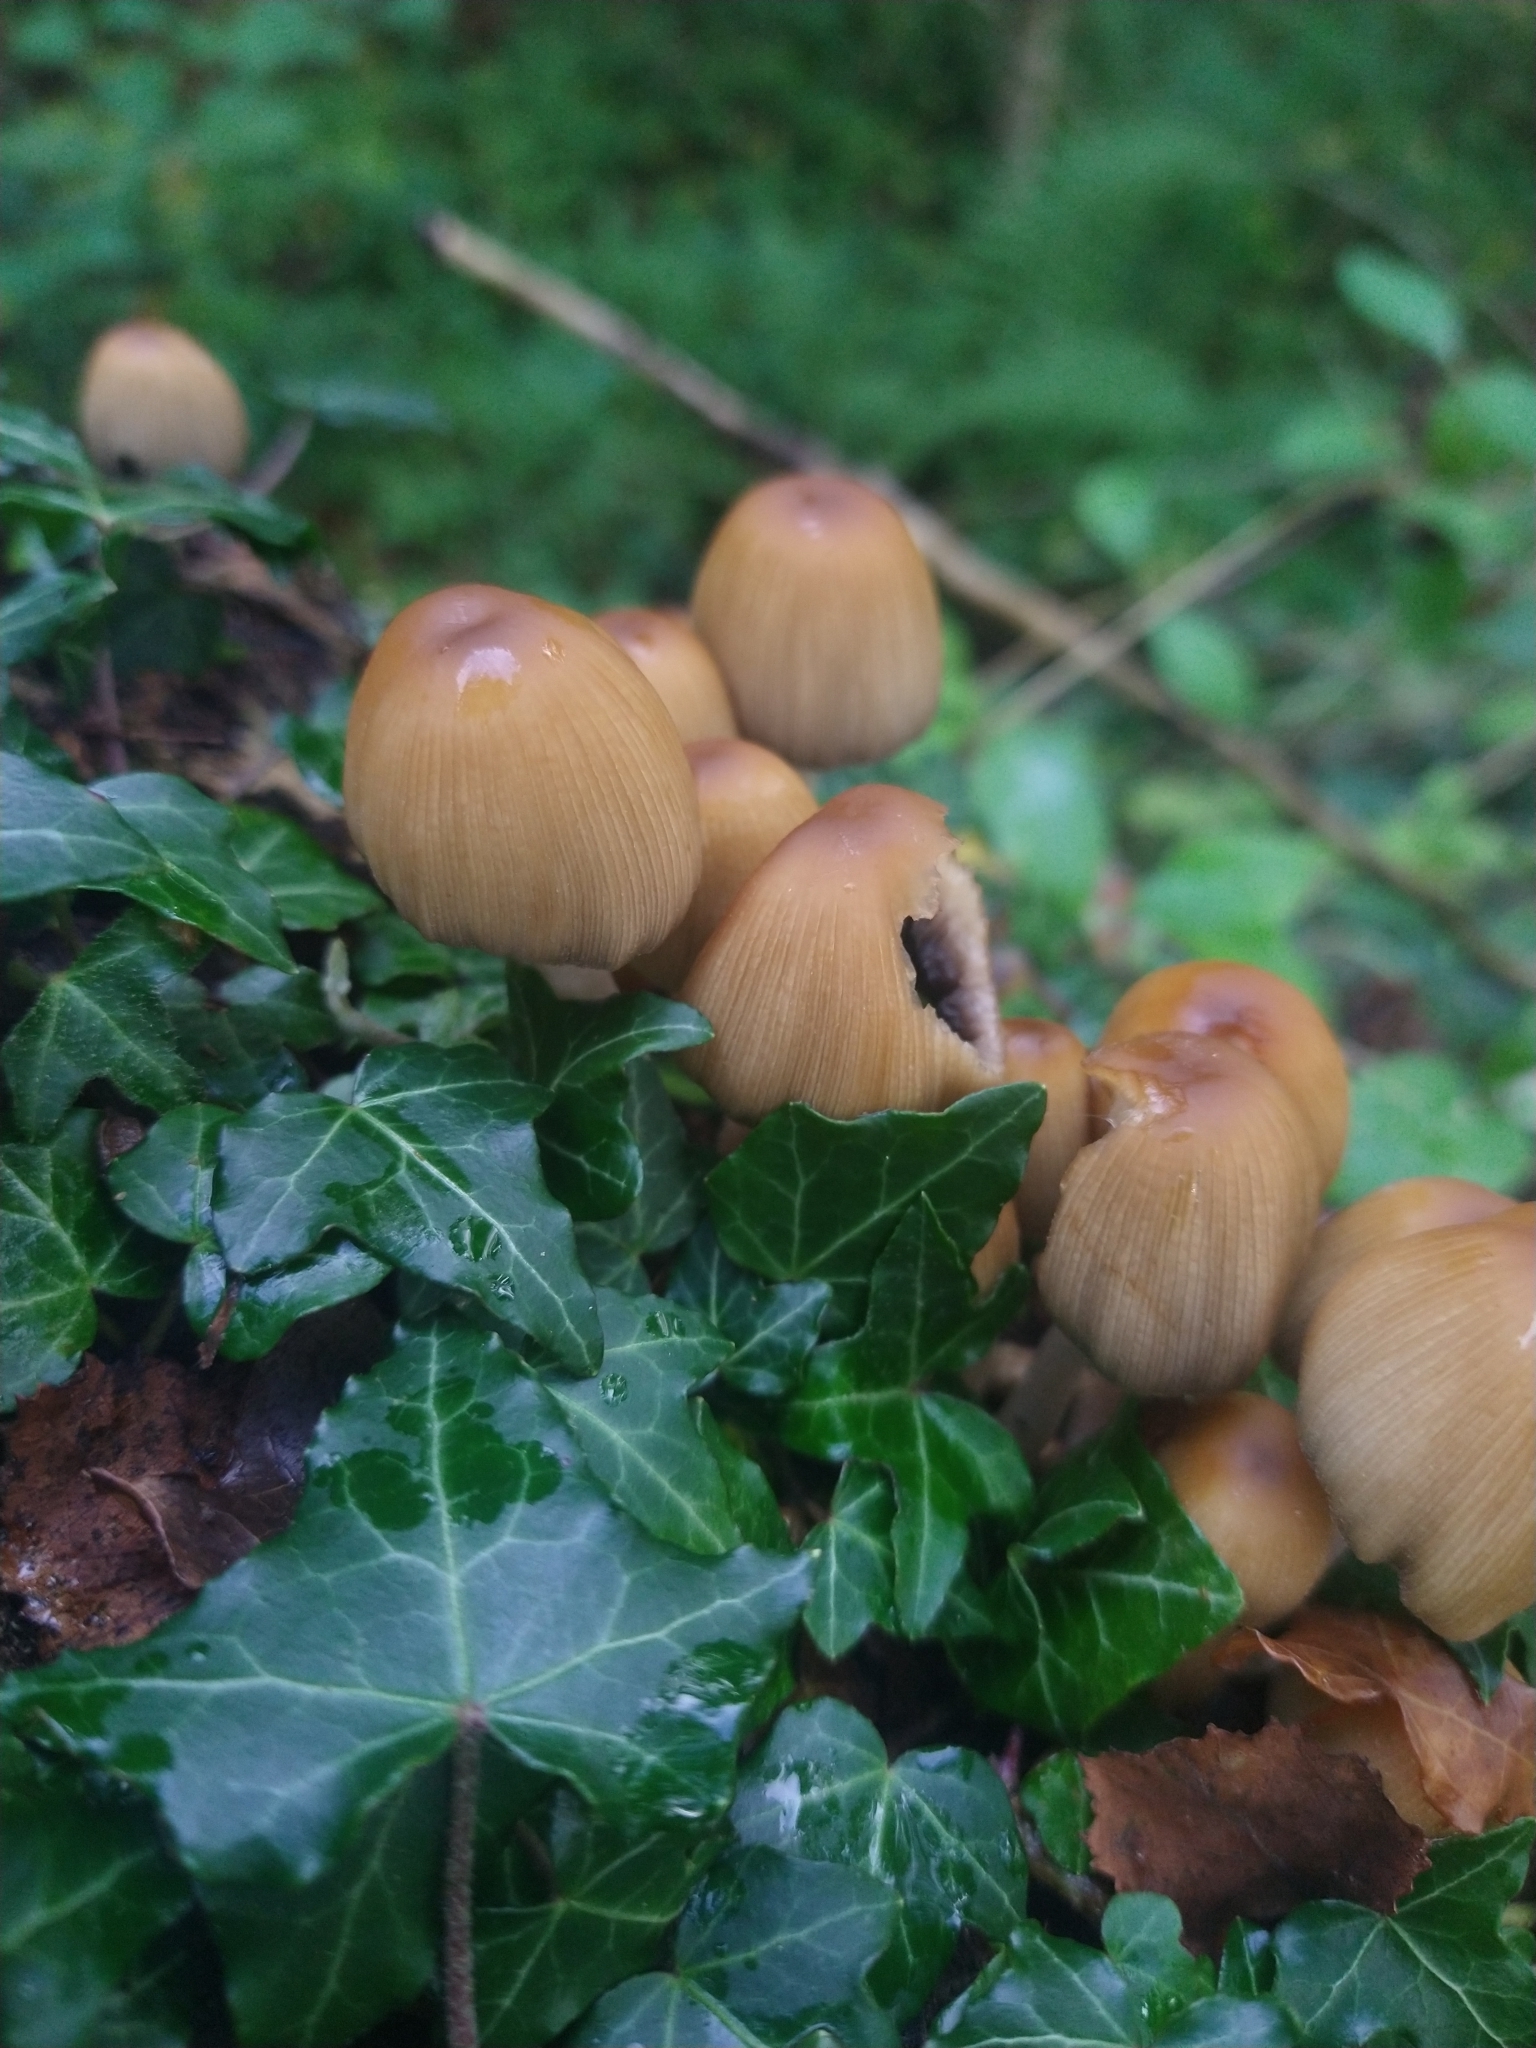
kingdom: Fungi
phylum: Basidiomycota
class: Agaricomycetes
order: Agaricales
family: Psathyrellaceae
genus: Coprinellus
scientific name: Coprinellus micaceus
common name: Glistening ink-cap
